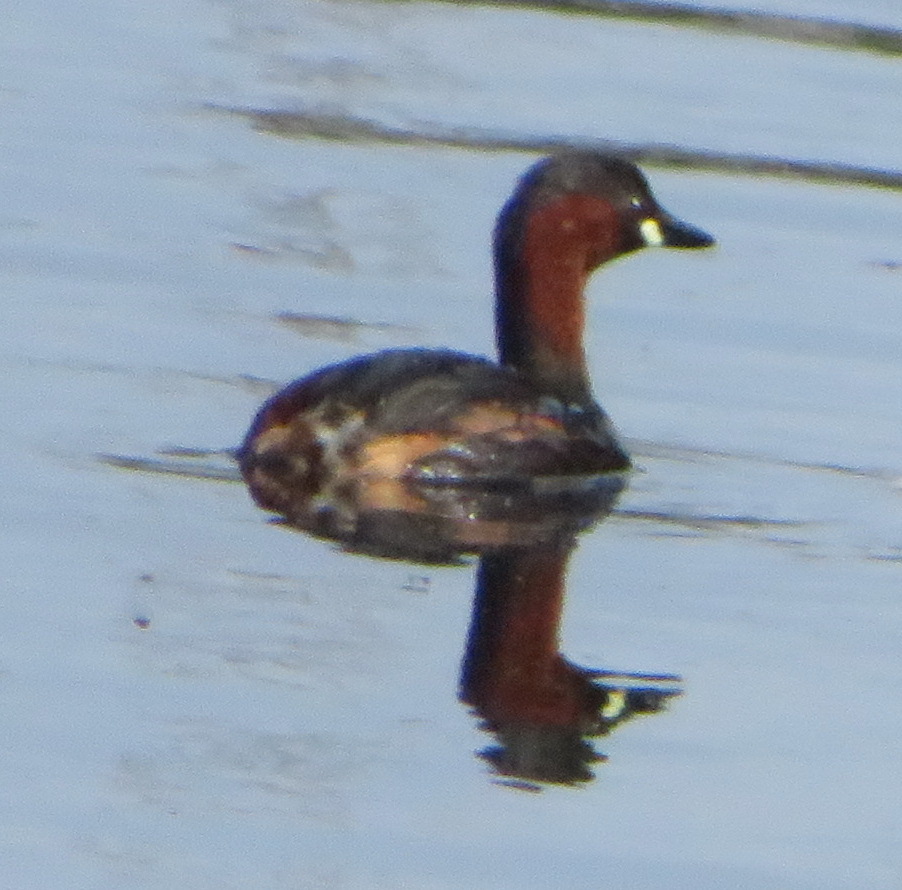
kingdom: Animalia
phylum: Chordata
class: Aves
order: Podicipediformes
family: Podicipedidae
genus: Tachybaptus
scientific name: Tachybaptus ruficollis
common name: Little grebe
